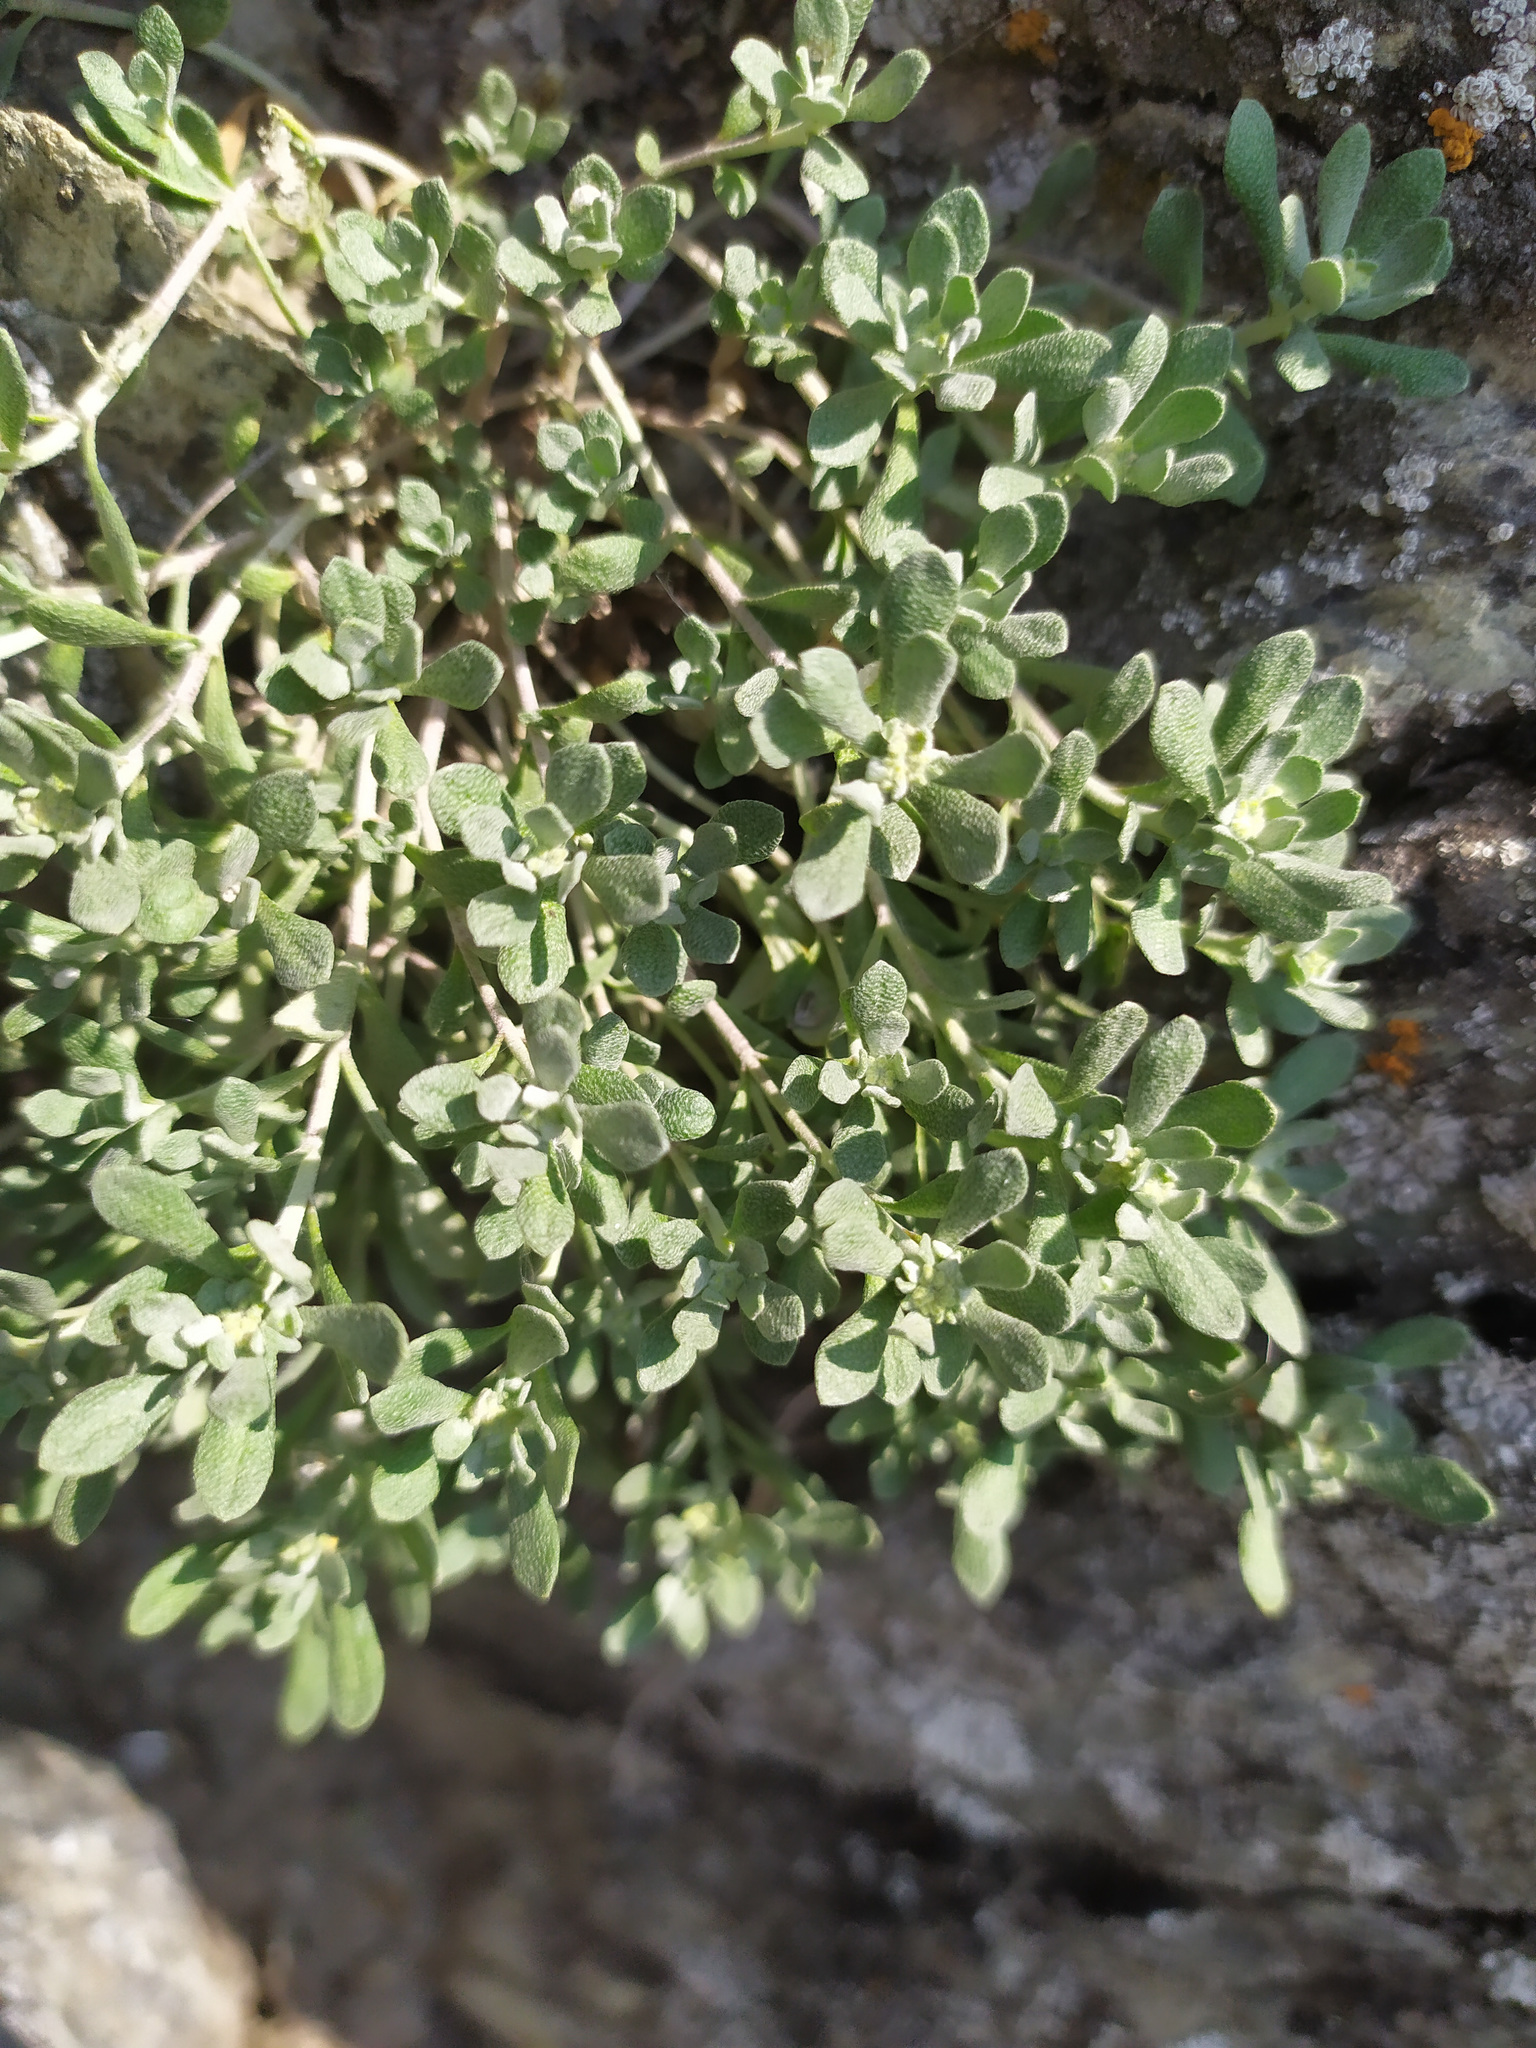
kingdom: Plantae
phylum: Tracheophyta
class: Magnoliopsida
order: Brassicales
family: Brassicaceae
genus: Odontarrhena
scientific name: Odontarrhena obovata
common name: American alyssum
